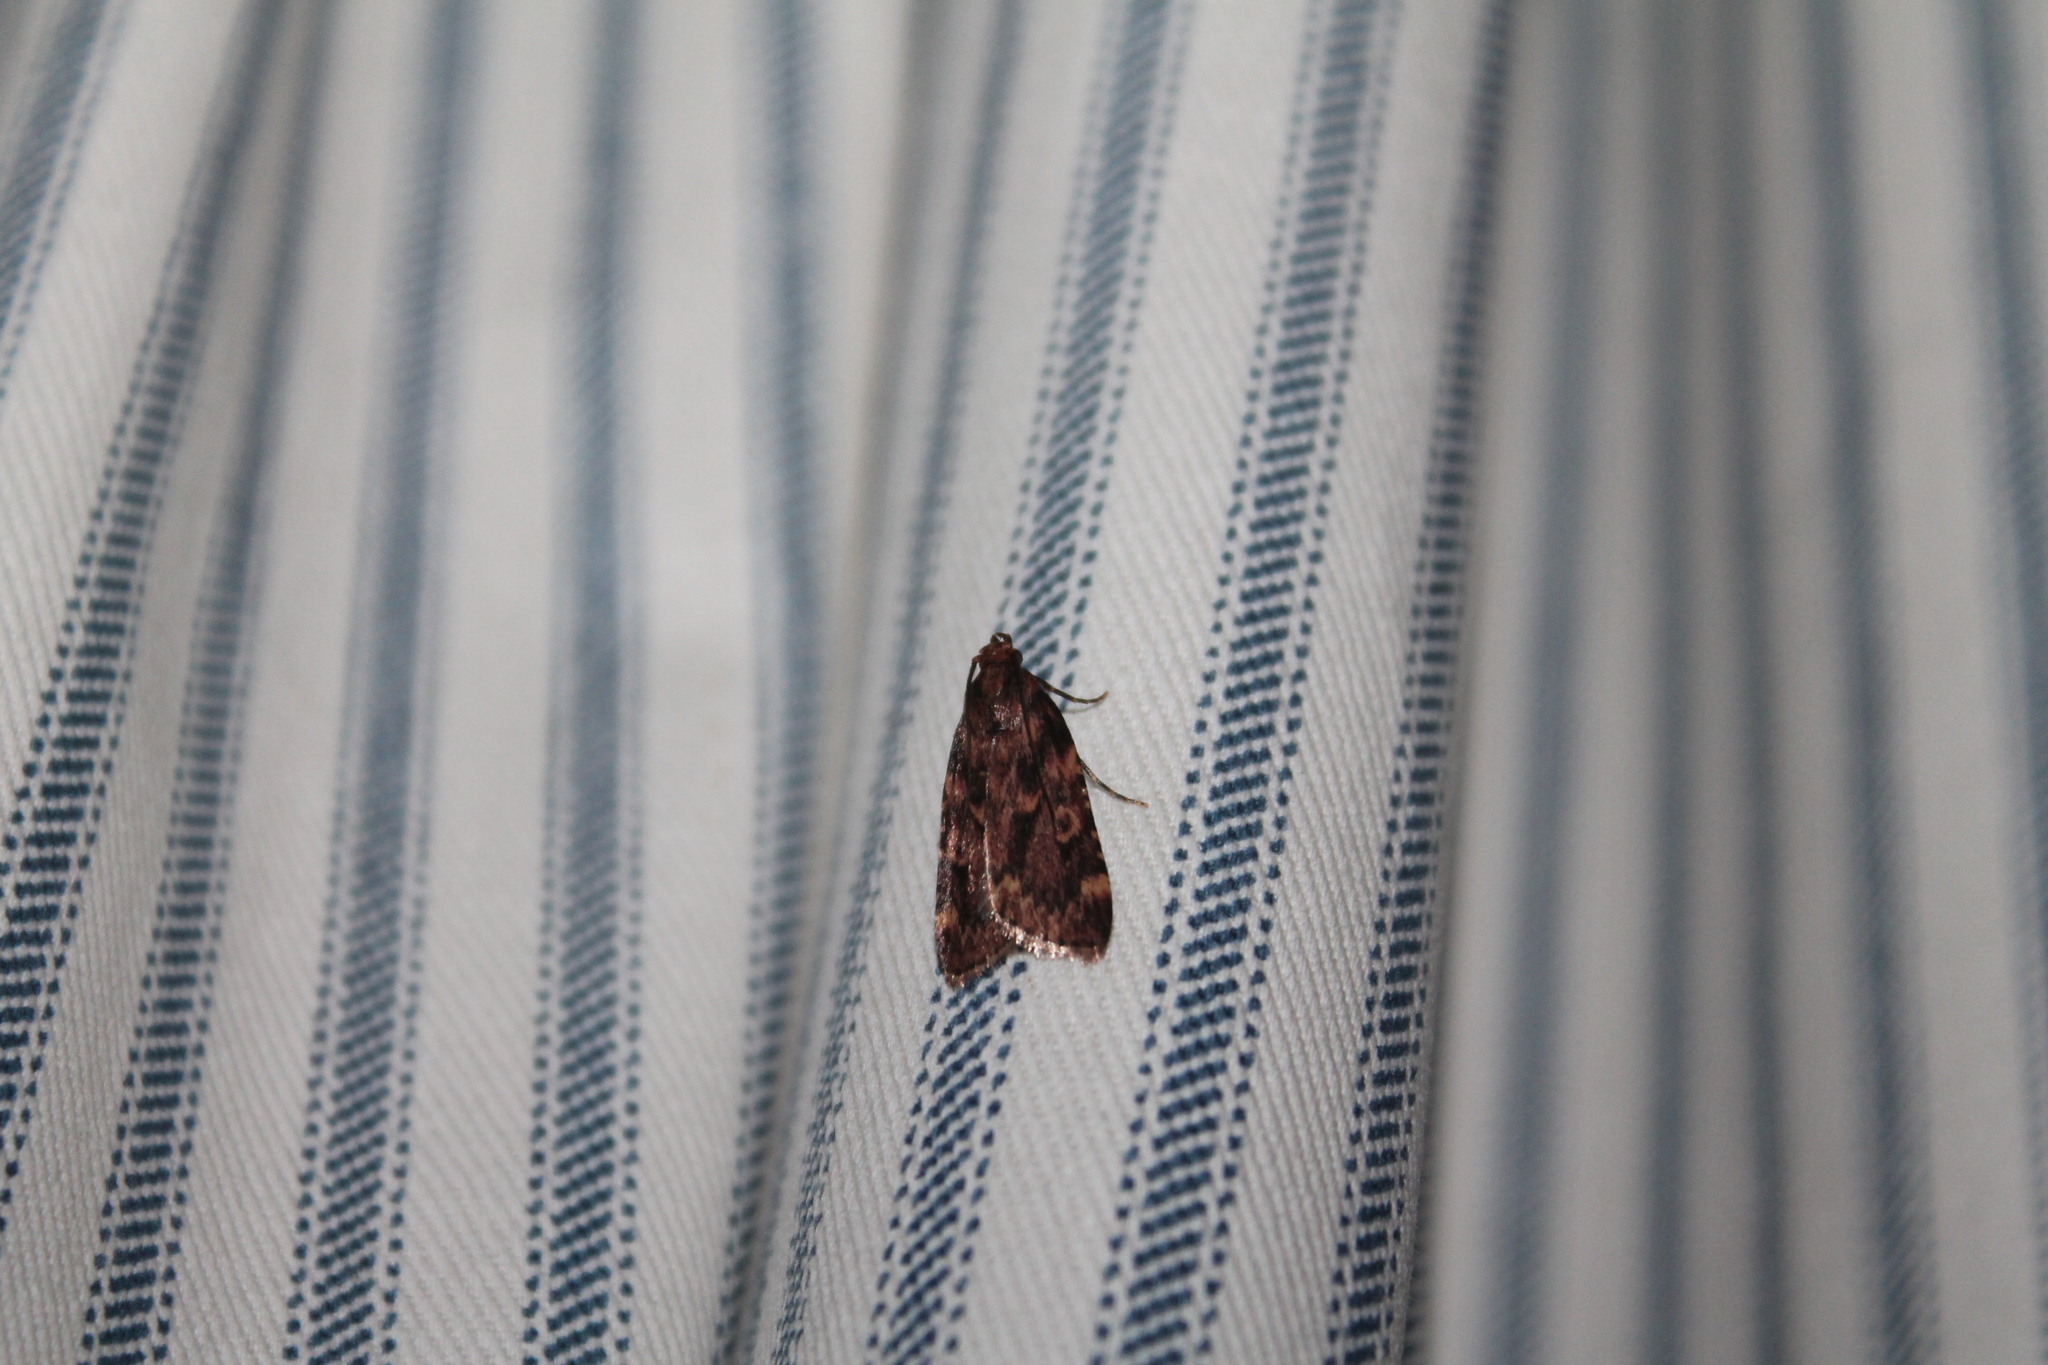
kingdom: Animalia
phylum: Arthropoda
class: Insecta
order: Lepidoptera
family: Pyralidae
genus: Aglossa
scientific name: Aglossa cuprina
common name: Grease moth
